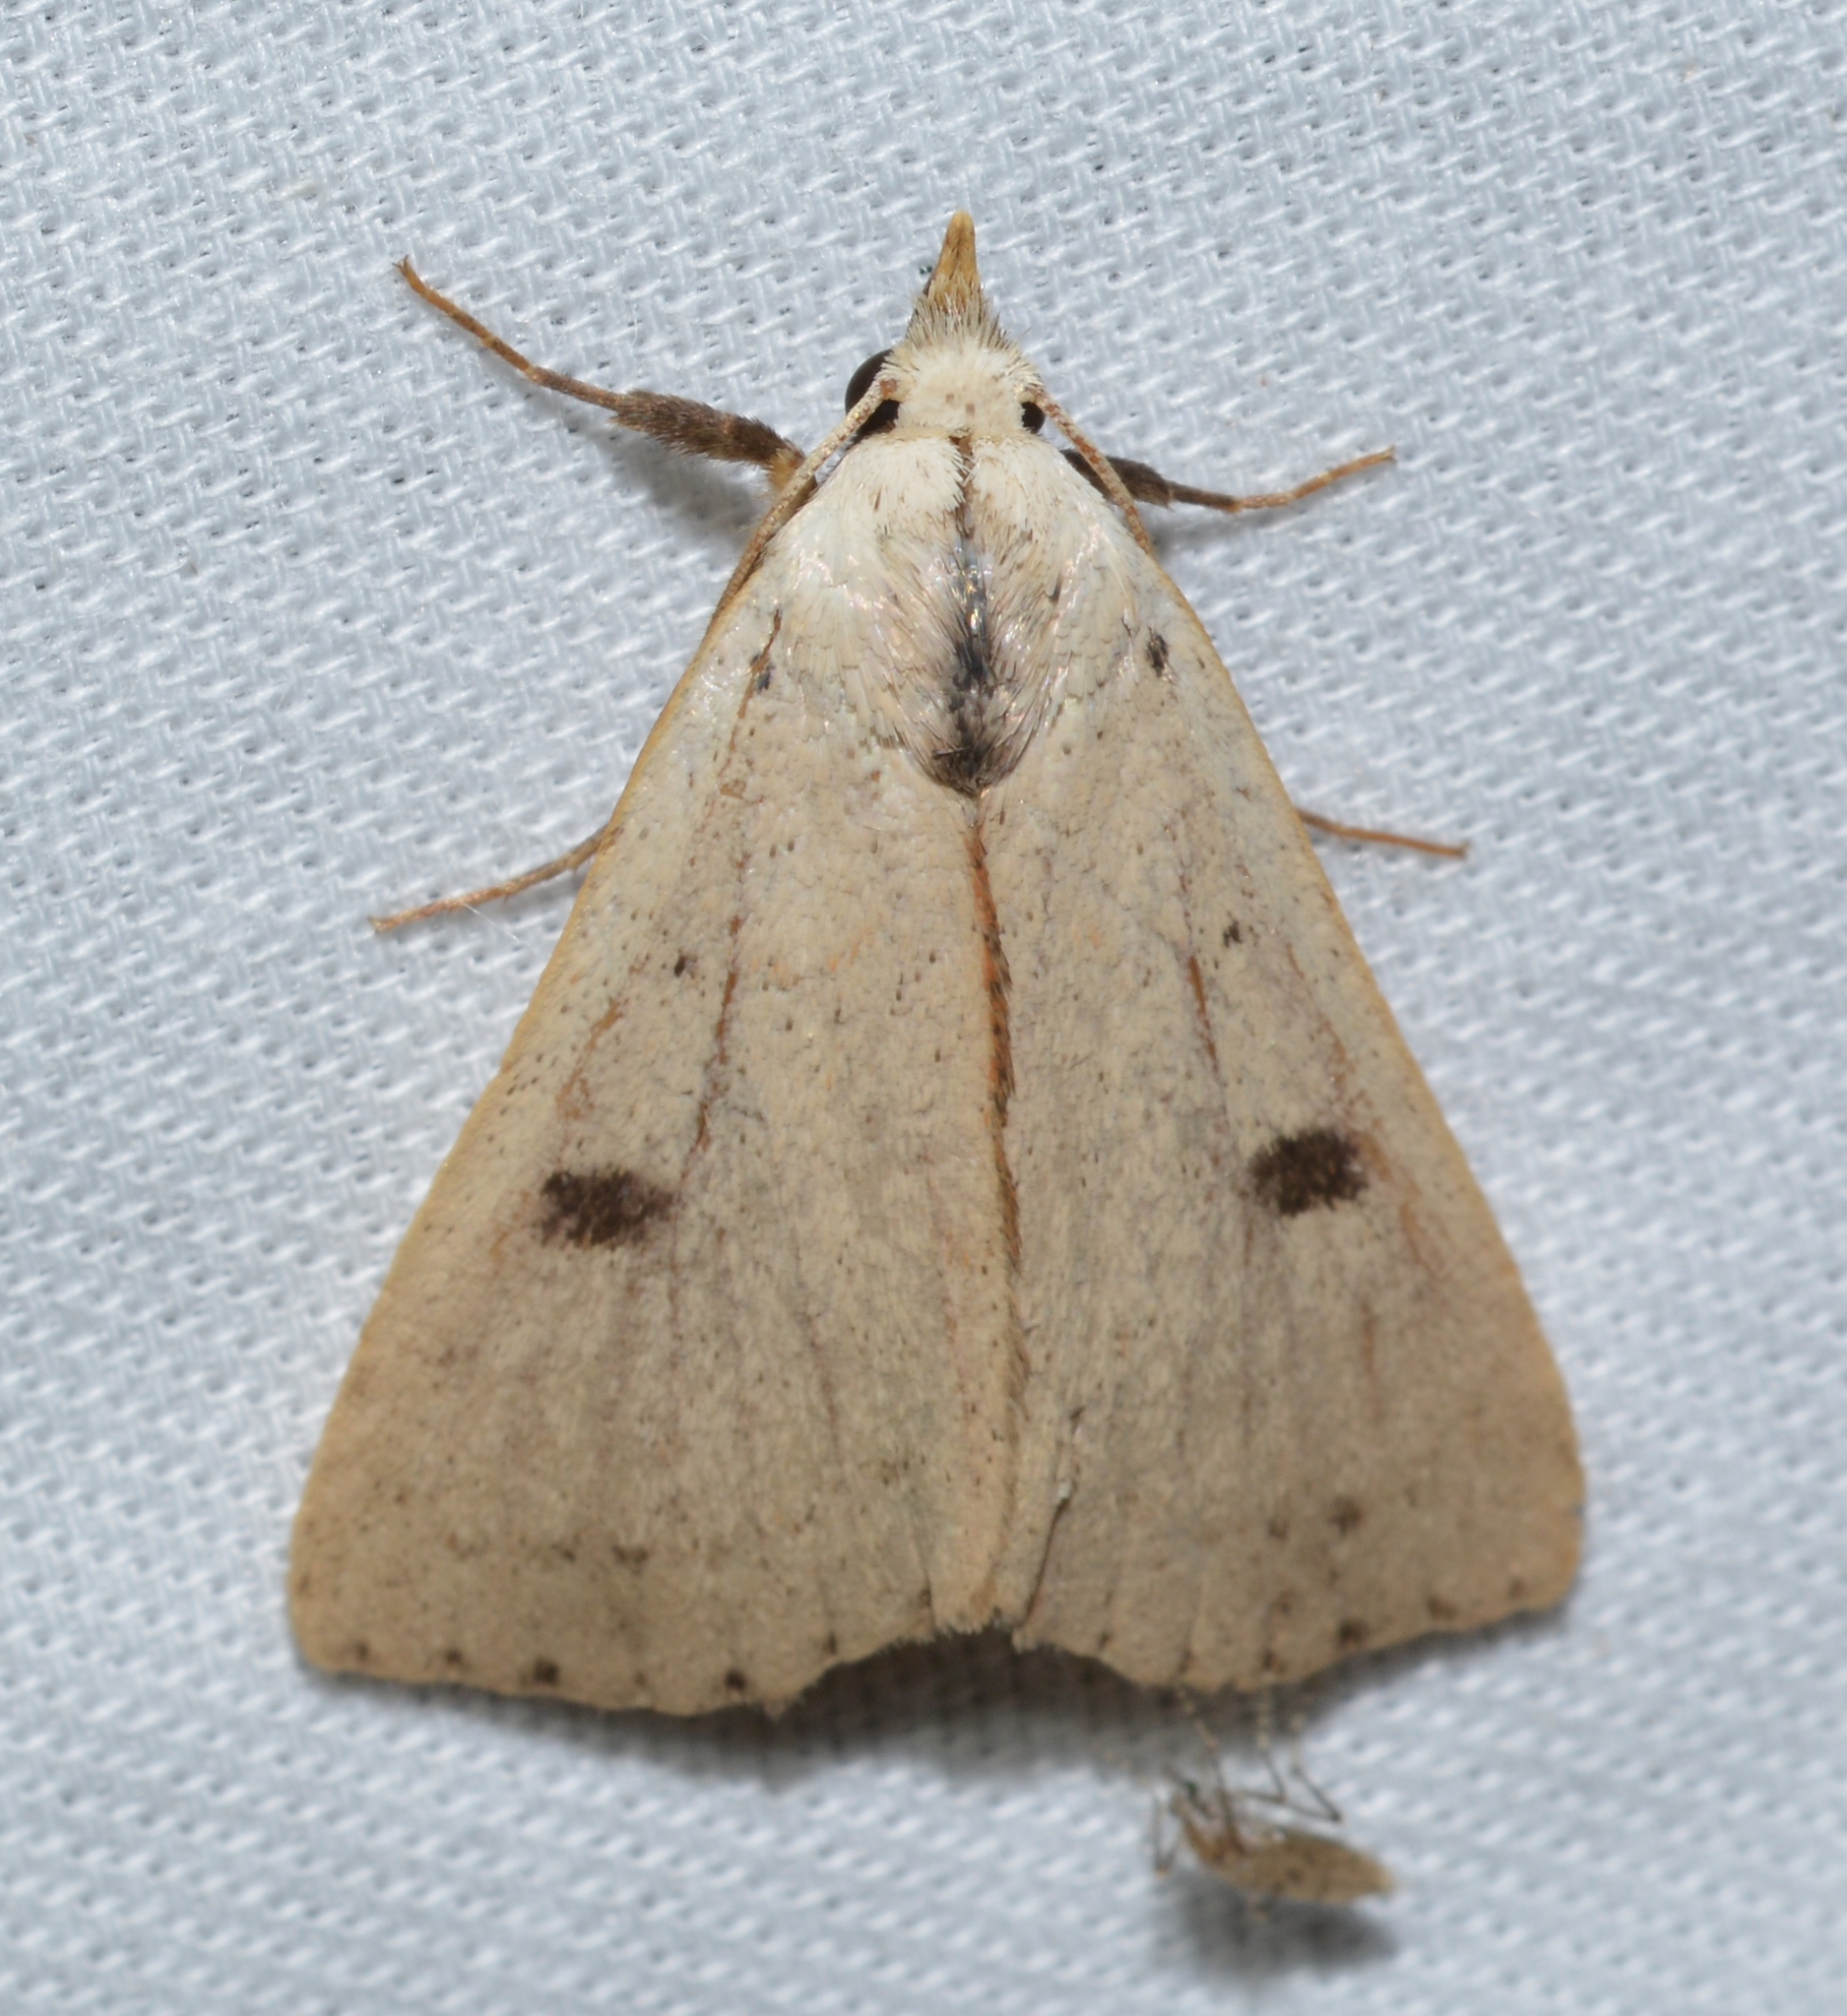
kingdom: Animalia
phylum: Arthropoda
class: Insecta
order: Lepidoptera
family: Erebidae
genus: Scolecocampa
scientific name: Scolecocampa liburna
